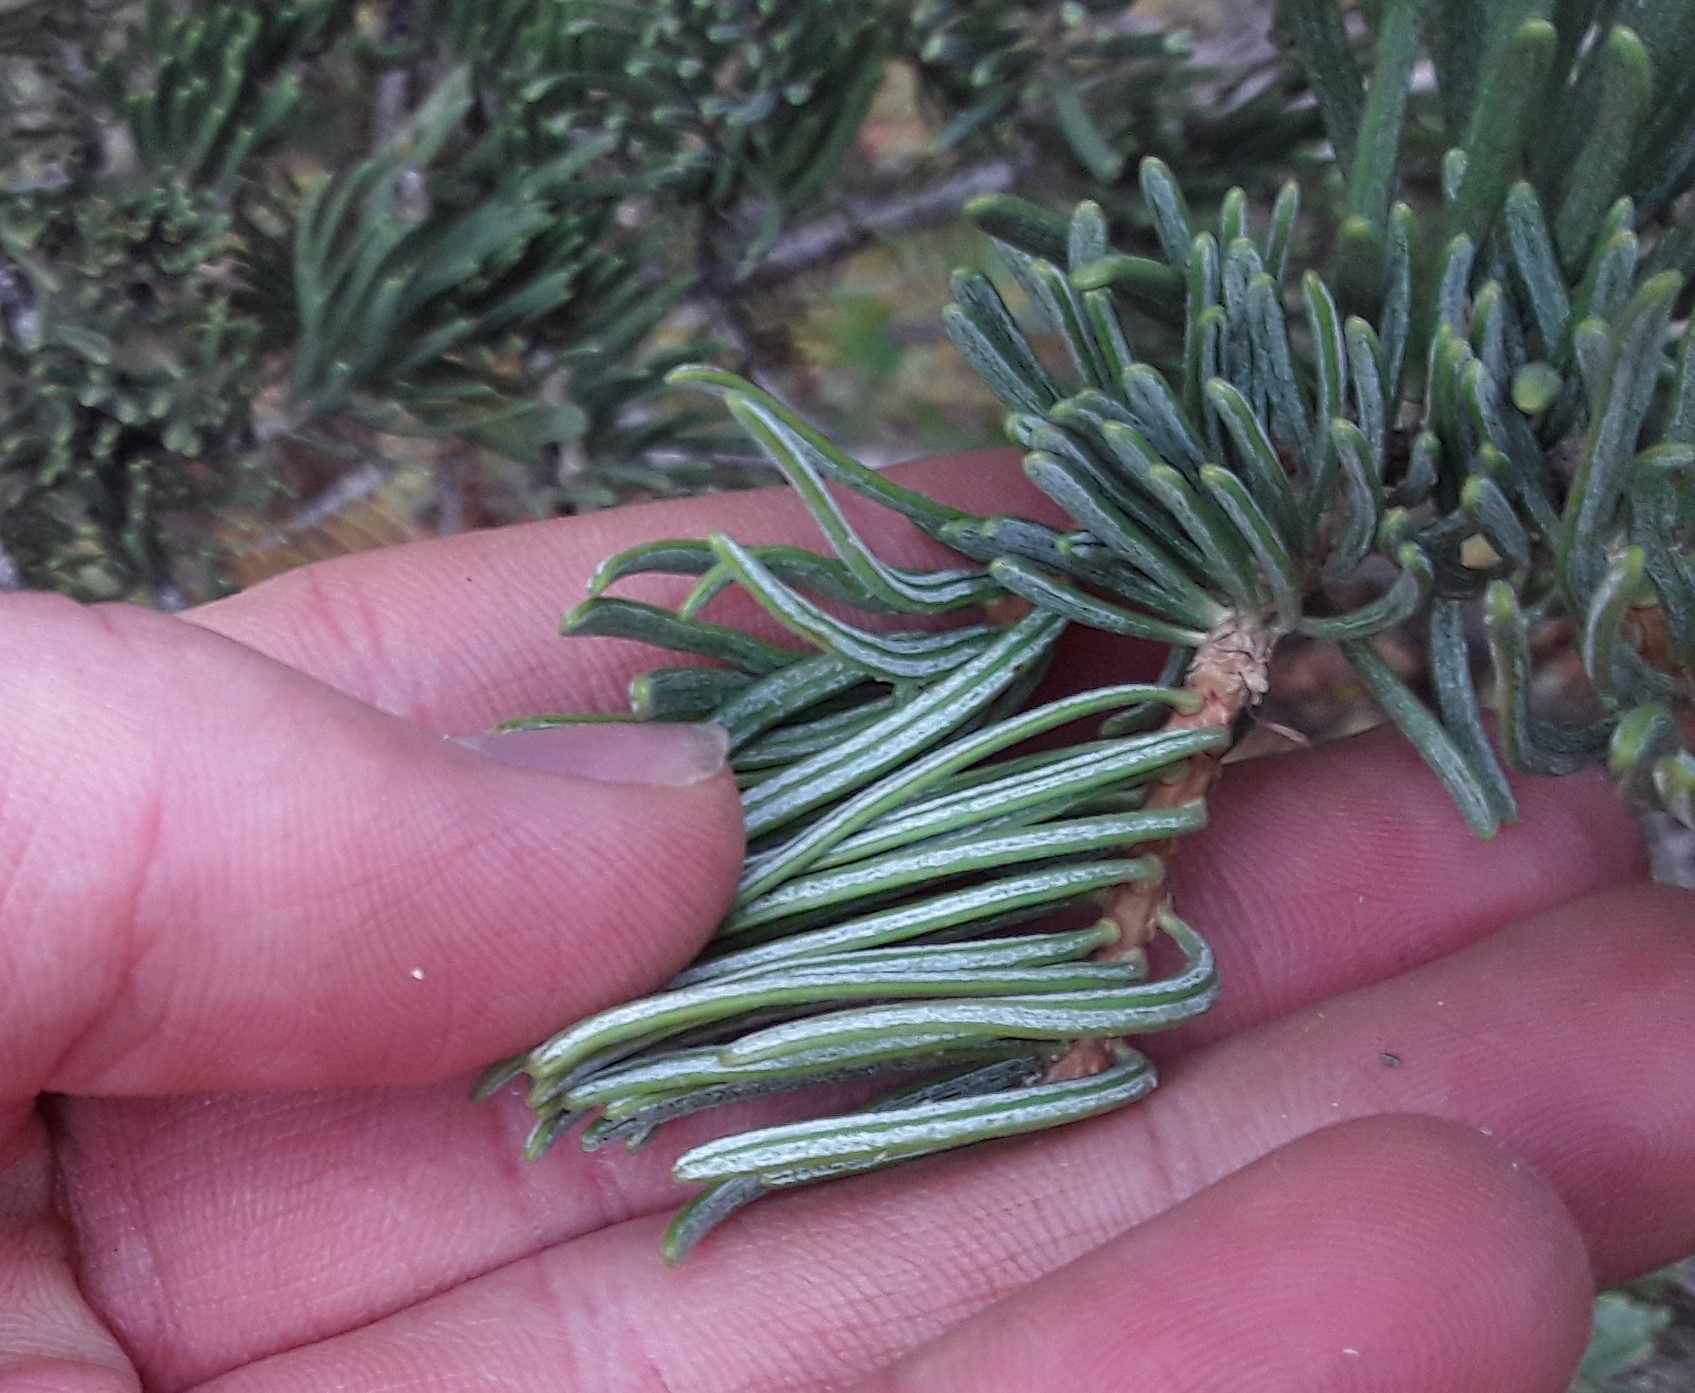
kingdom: Plantae
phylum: Tracheophyta
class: Pinopsida
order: Pinales
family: Pinaceae
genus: Abies
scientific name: Abies concolor
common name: Colorado fir
